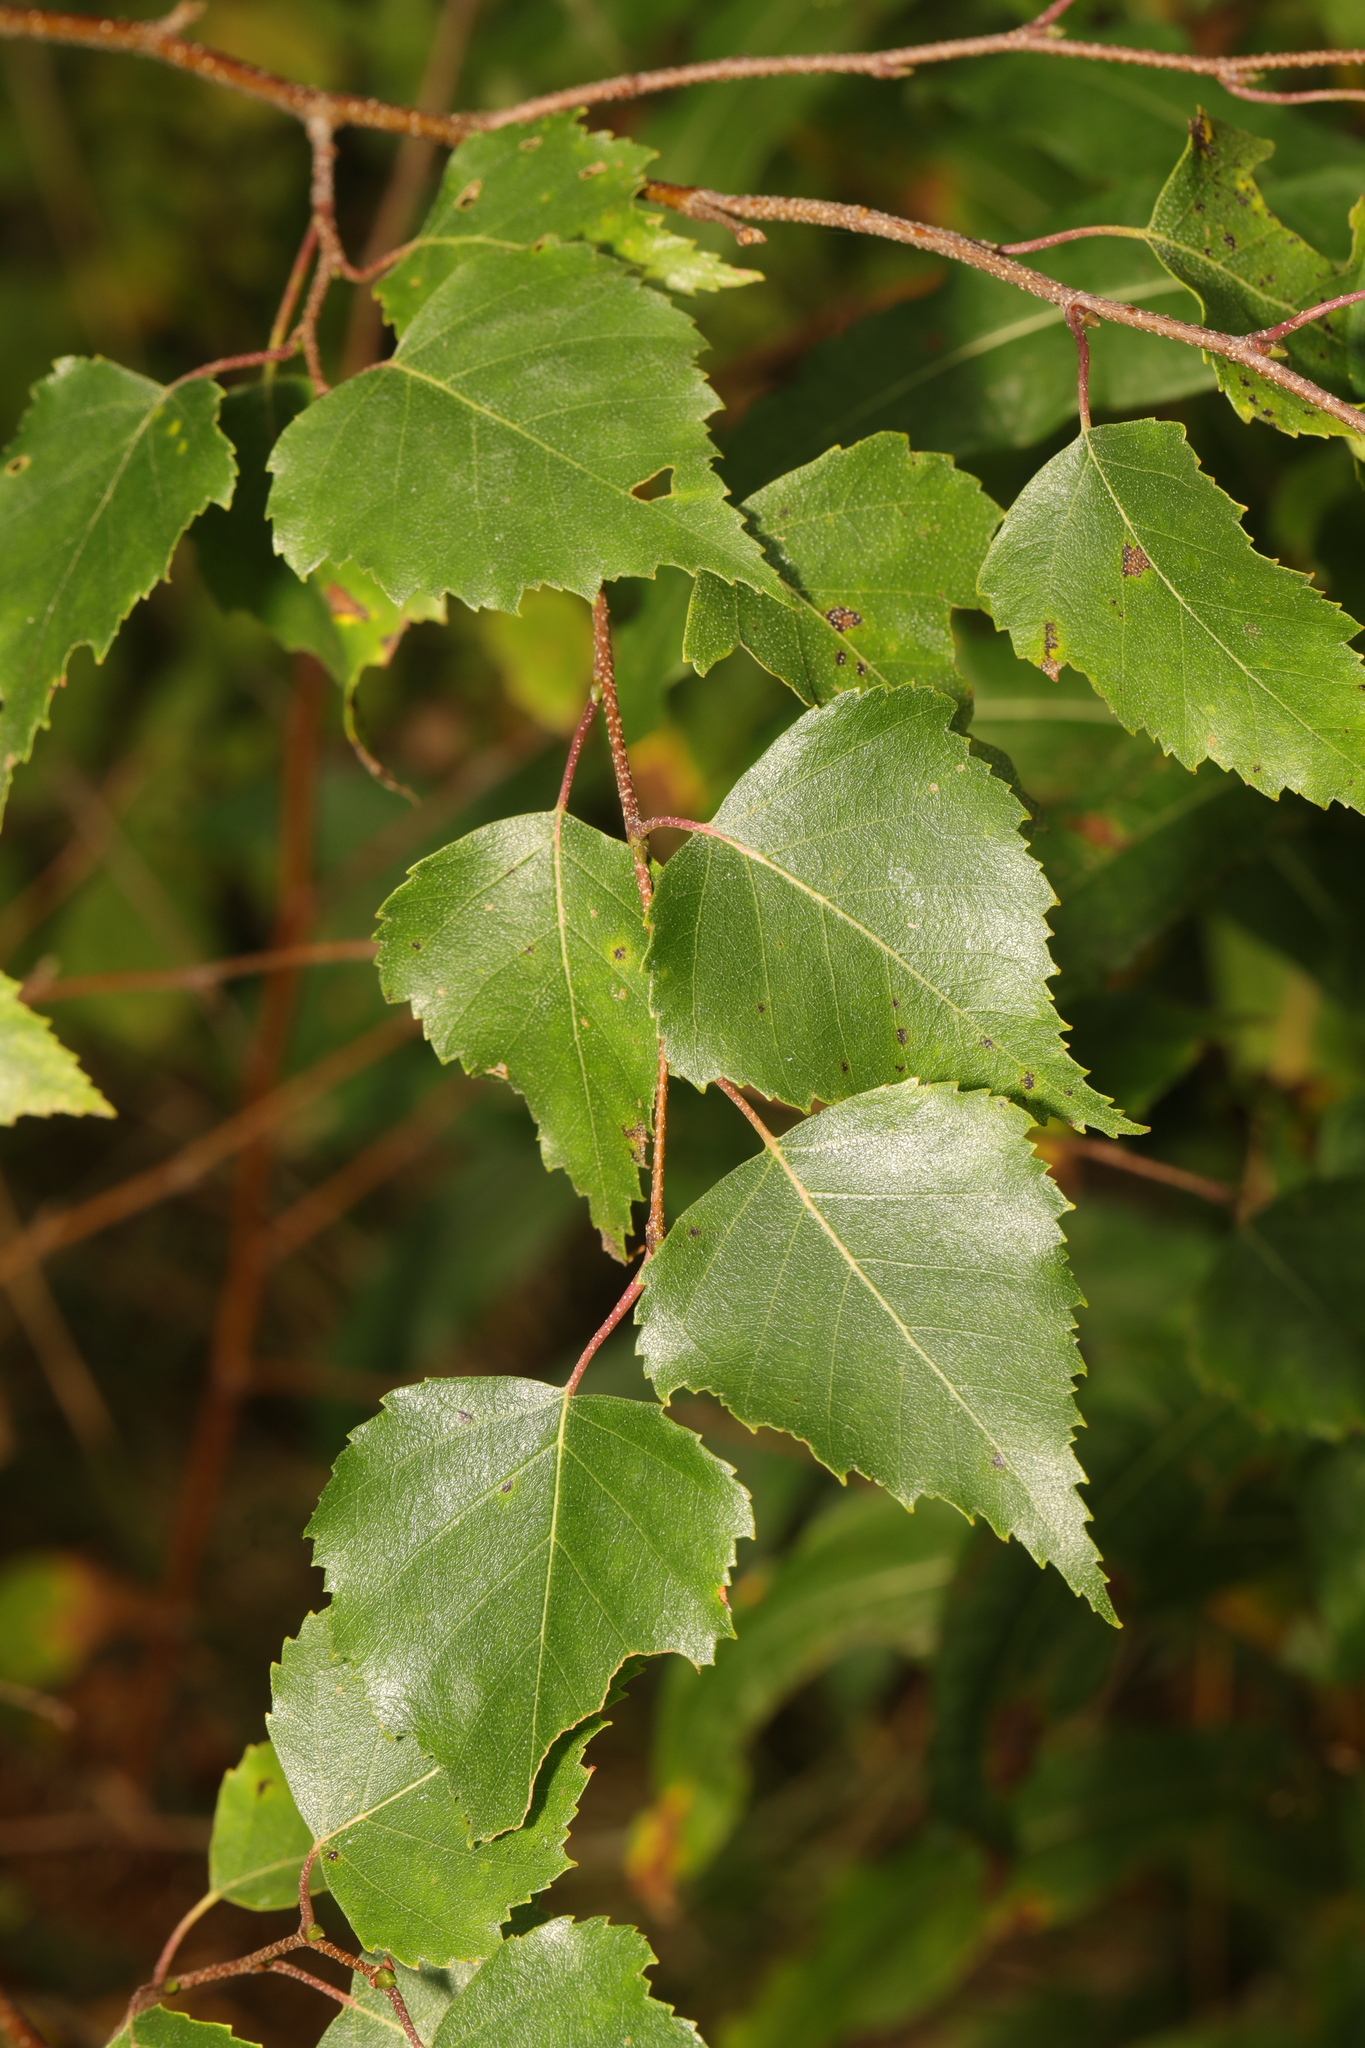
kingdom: Plantae
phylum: Tracheophyta
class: Magnoliopsida
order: Fagales
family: Betulaceae
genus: Betula
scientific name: Betula pendula
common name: Silver birch
